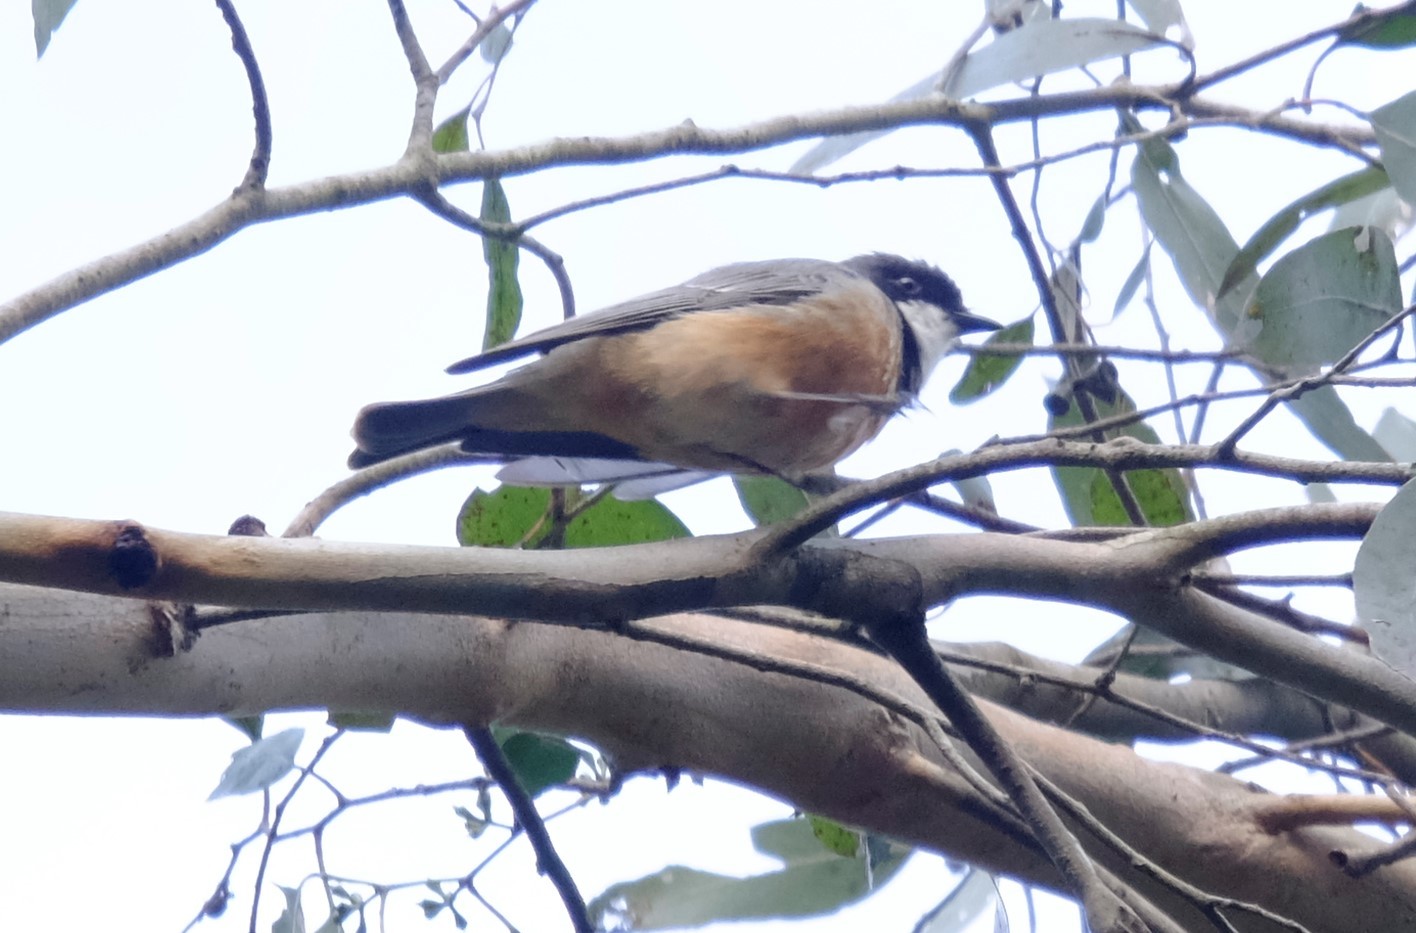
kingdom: Animalia
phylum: Chordata
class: Aves
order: Passeriformes
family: Pachycephalidae
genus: Pachycephala
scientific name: Pachycephala rufiventris
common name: Rufous whistler
